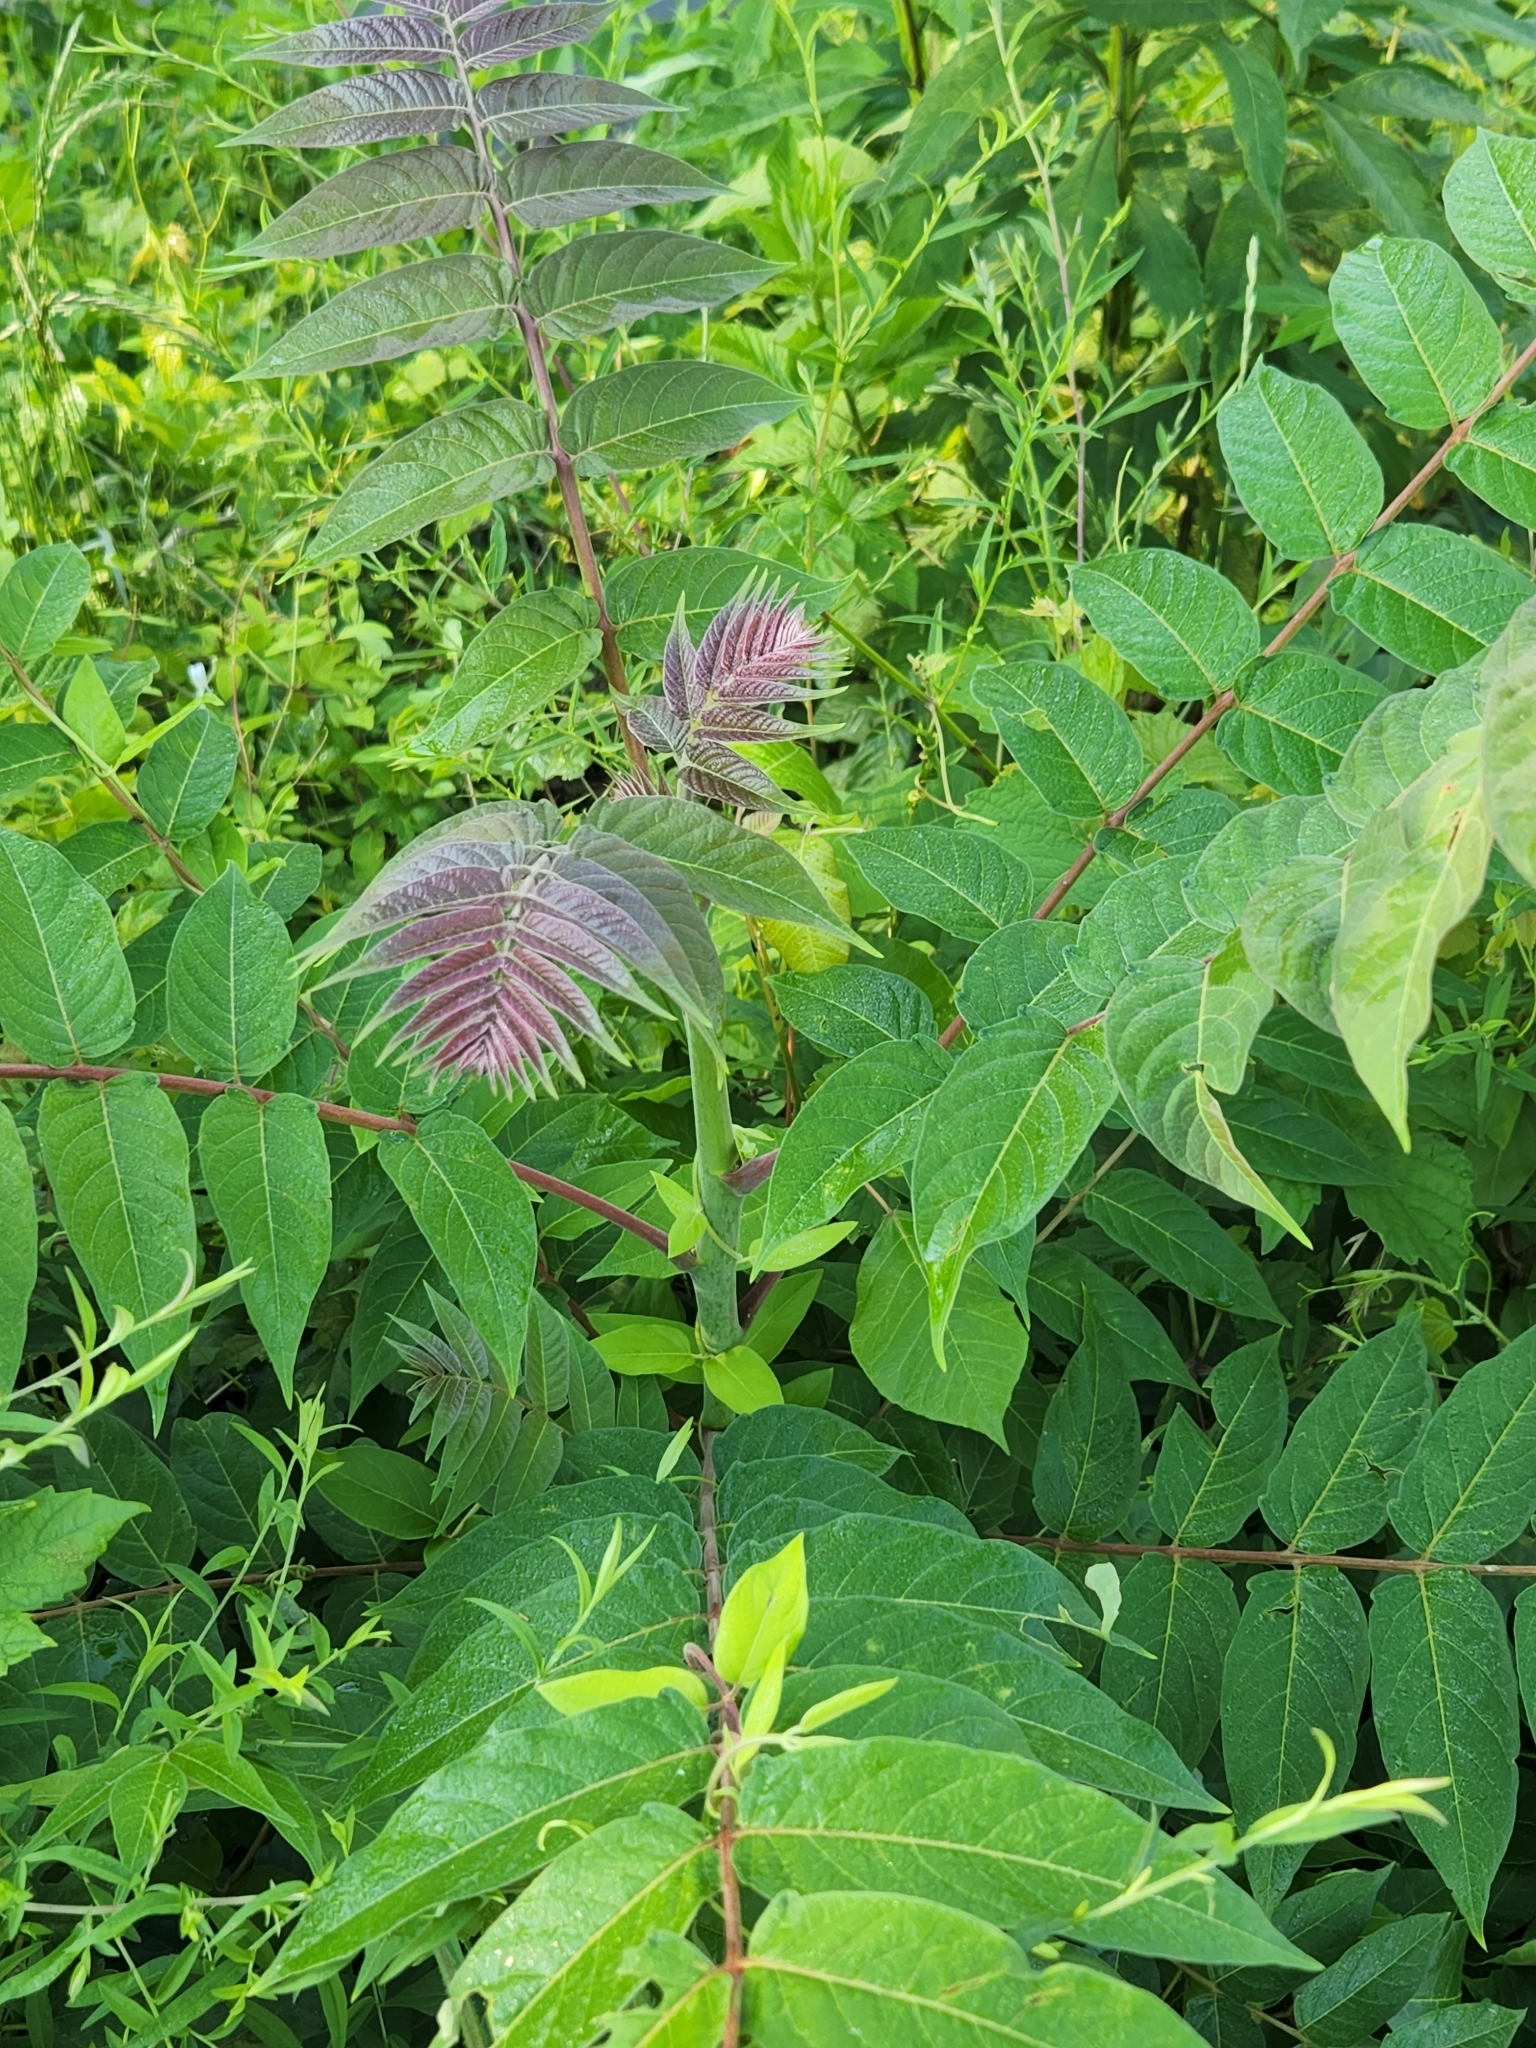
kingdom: Plantae
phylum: Tracheophyta
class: Magnoliopsida
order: Sapindales
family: Simaroubaceae
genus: Ailanthus
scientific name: Ailanthus altissima
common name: Tree-of-heaven
